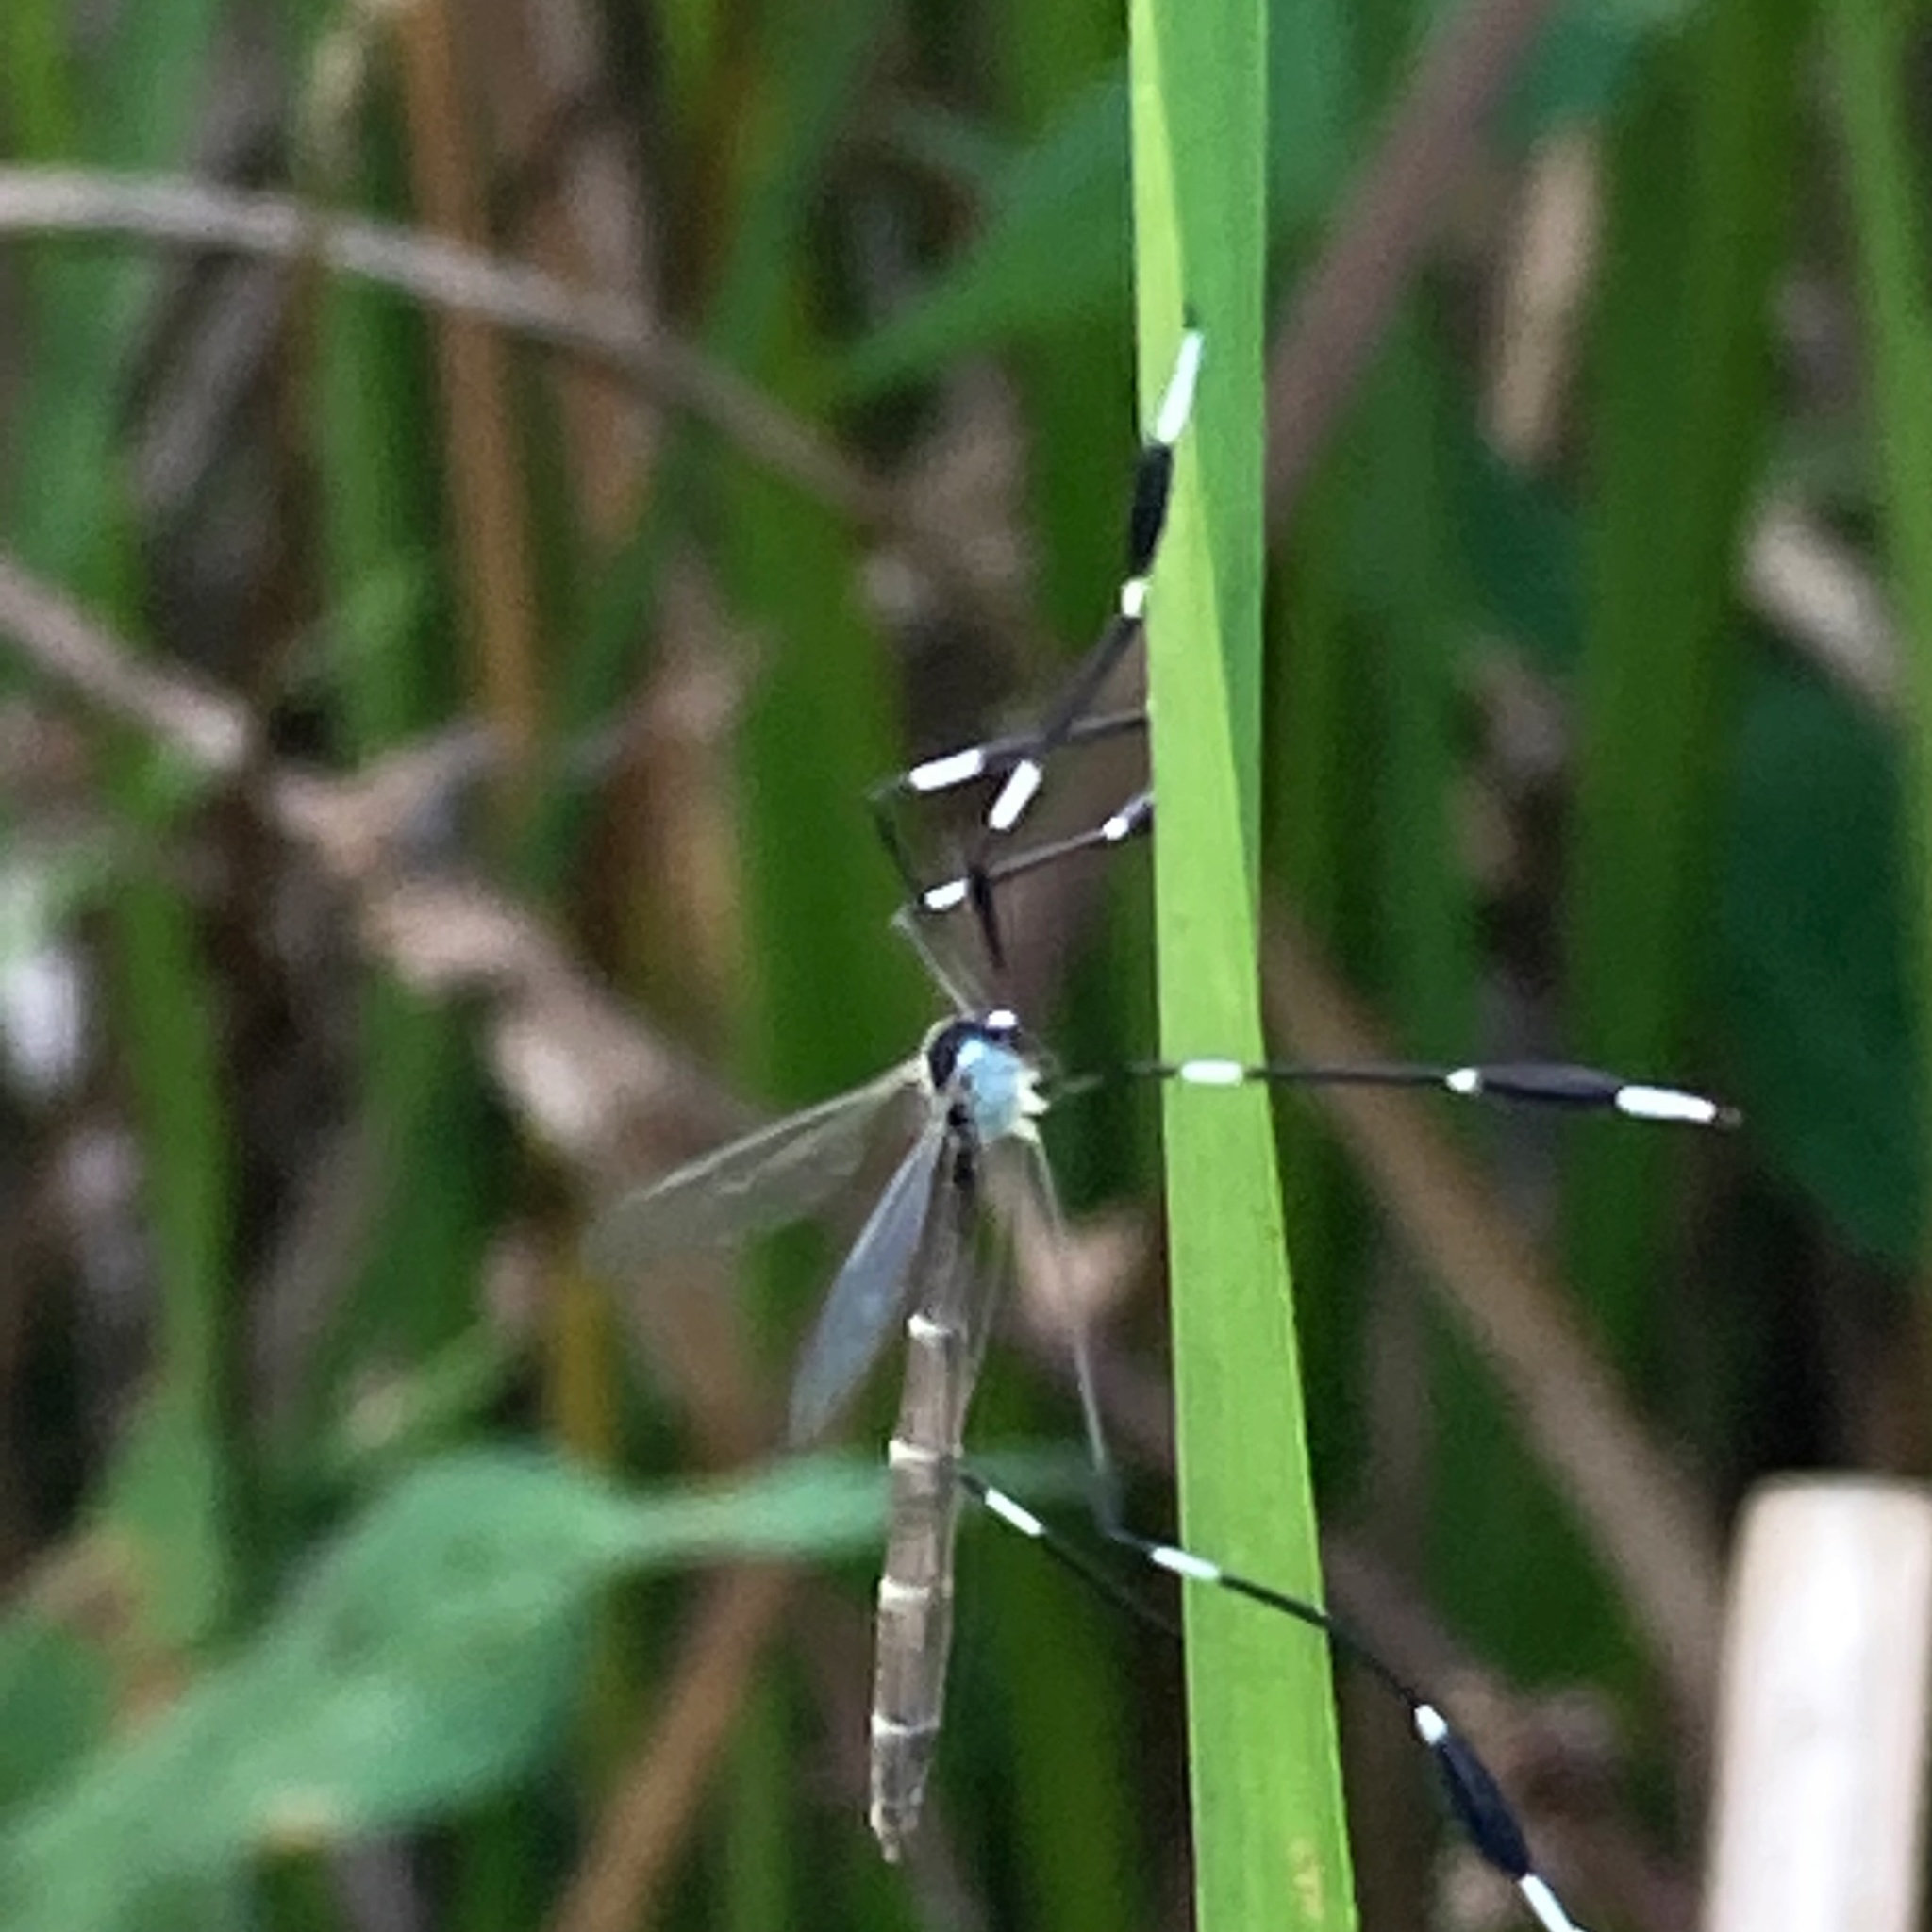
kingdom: Animalia
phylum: Arthropoda
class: Insecta
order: Diptera
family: Ptychopteridae
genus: Bittacomorpha
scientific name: Bittacomorpha clavipes
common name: Eastern phantom crane fly
